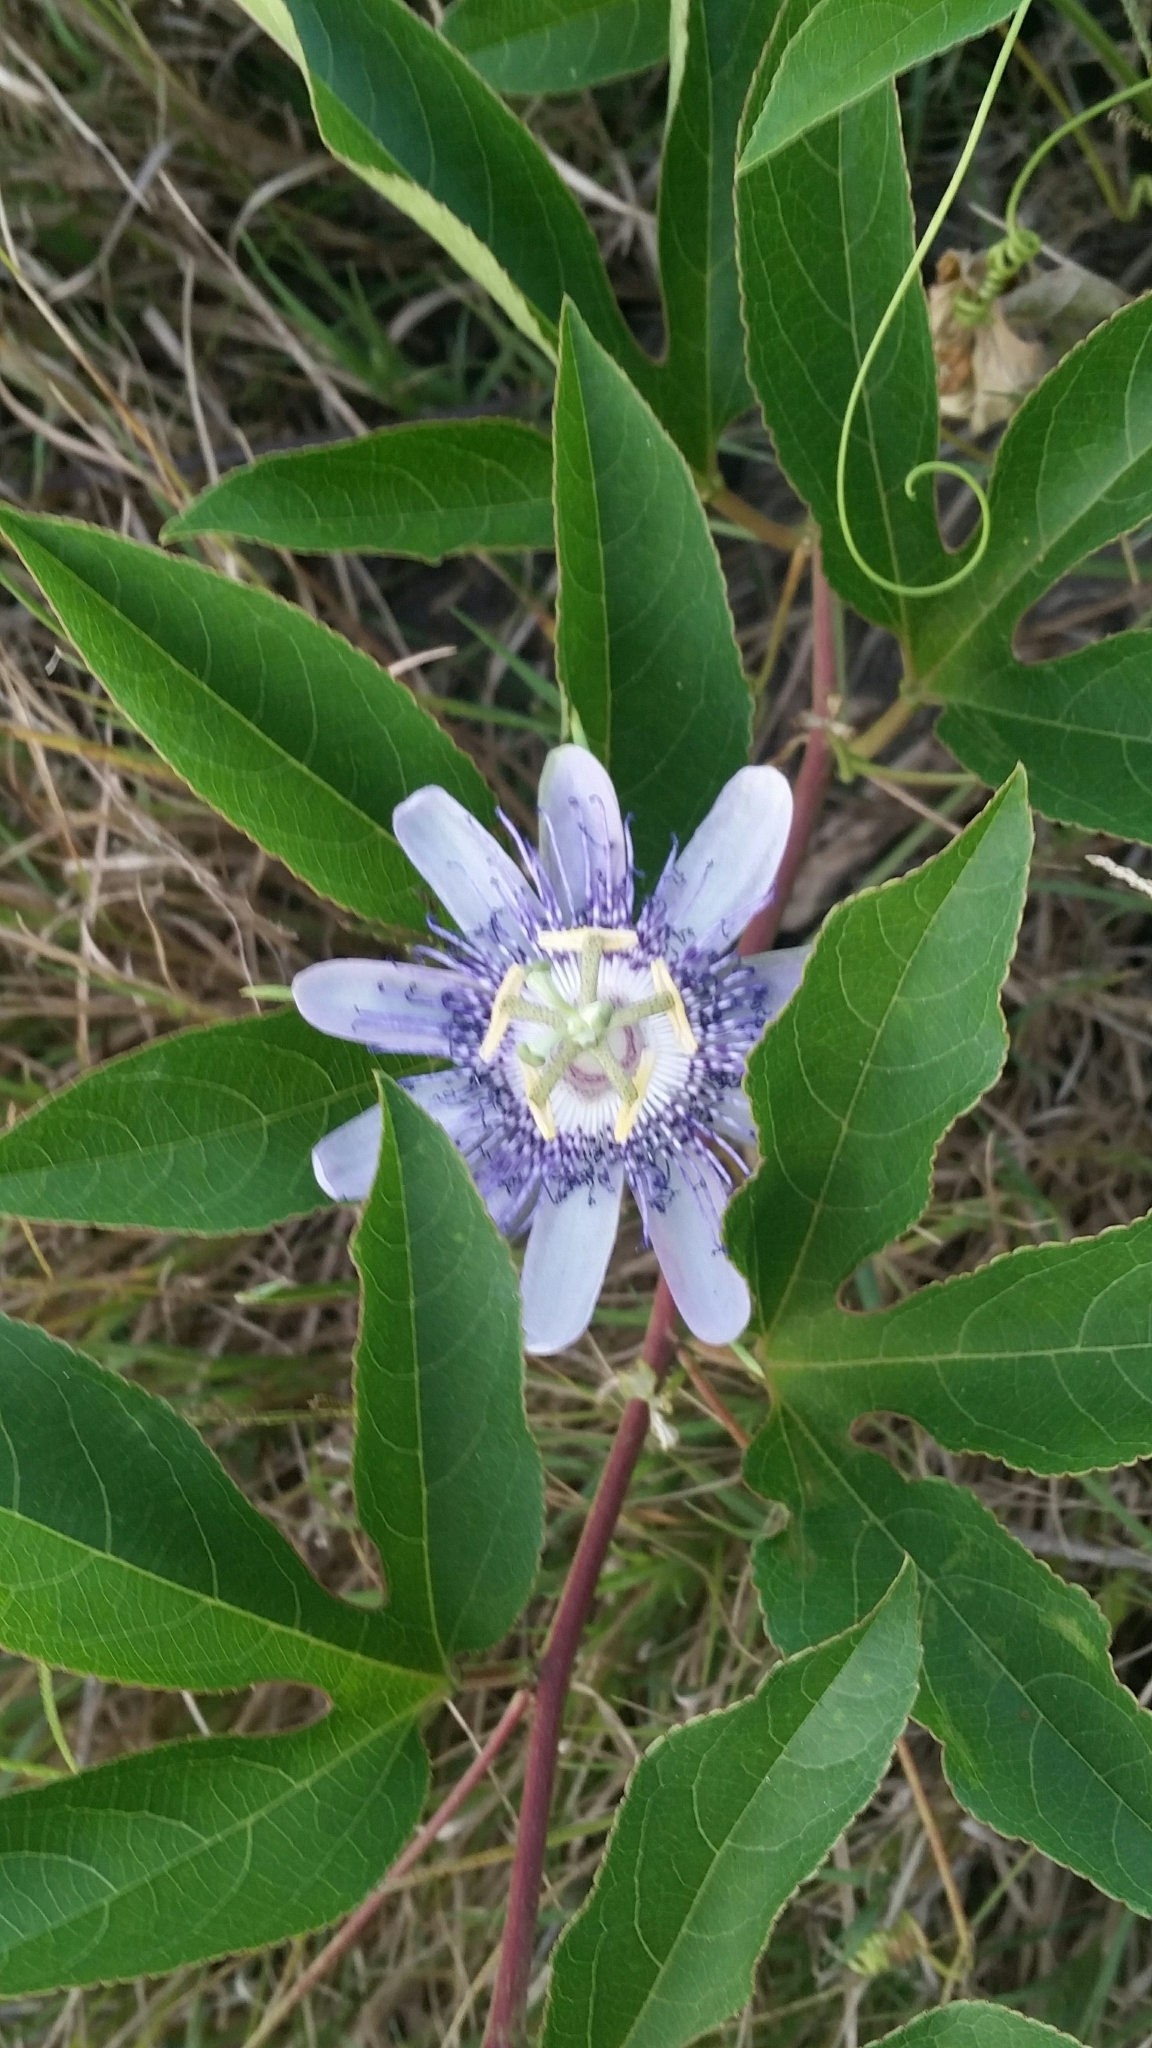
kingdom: Plantae
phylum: Tracheophyta
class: Magnoliopsida
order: Malpighiales
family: Passifloraceae
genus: Passiflora
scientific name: Passiflora incarnata
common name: Apricot-vine
